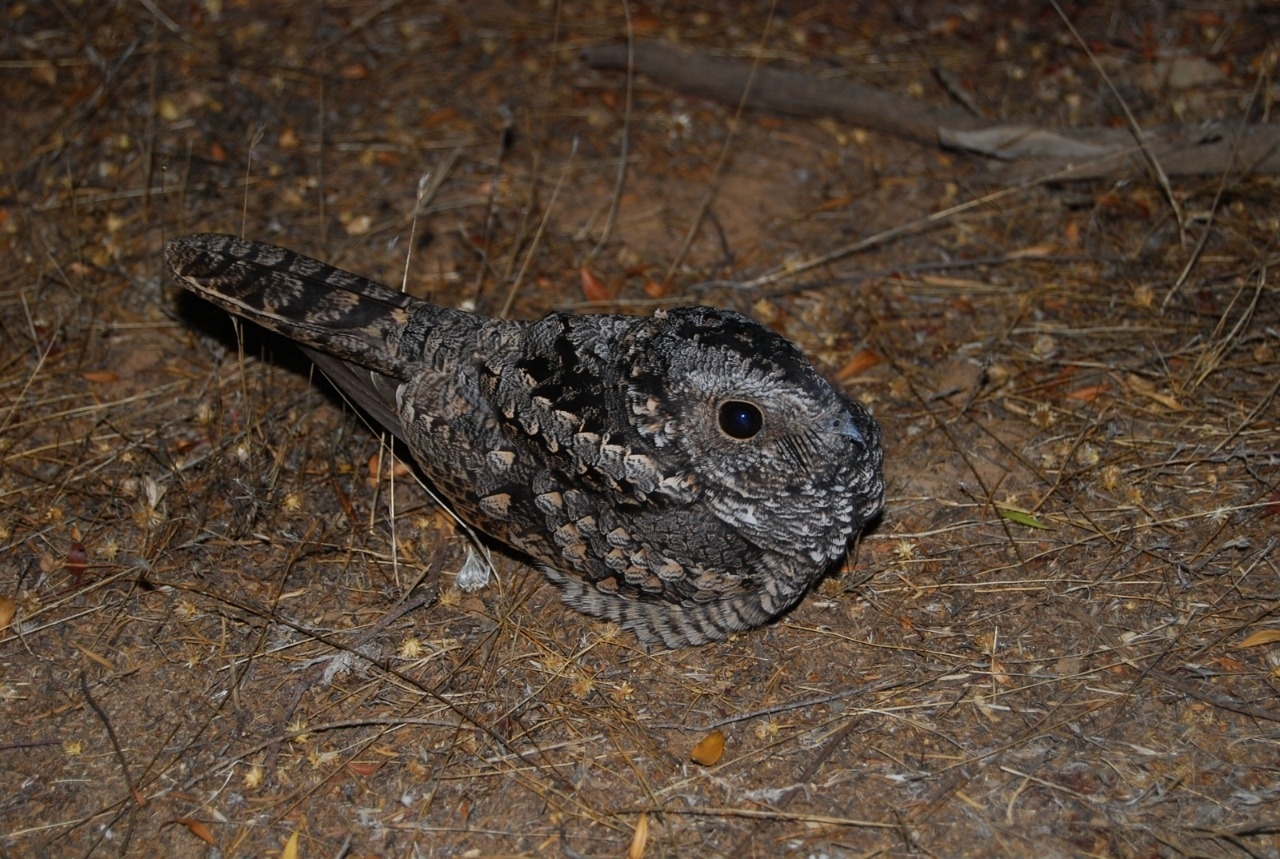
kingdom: Animalia
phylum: Chordata
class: Aves
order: Caprimulgiformes
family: Caprimulgidae
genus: Systellura
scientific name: Systellura longirostris
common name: Band-winged nightjar
